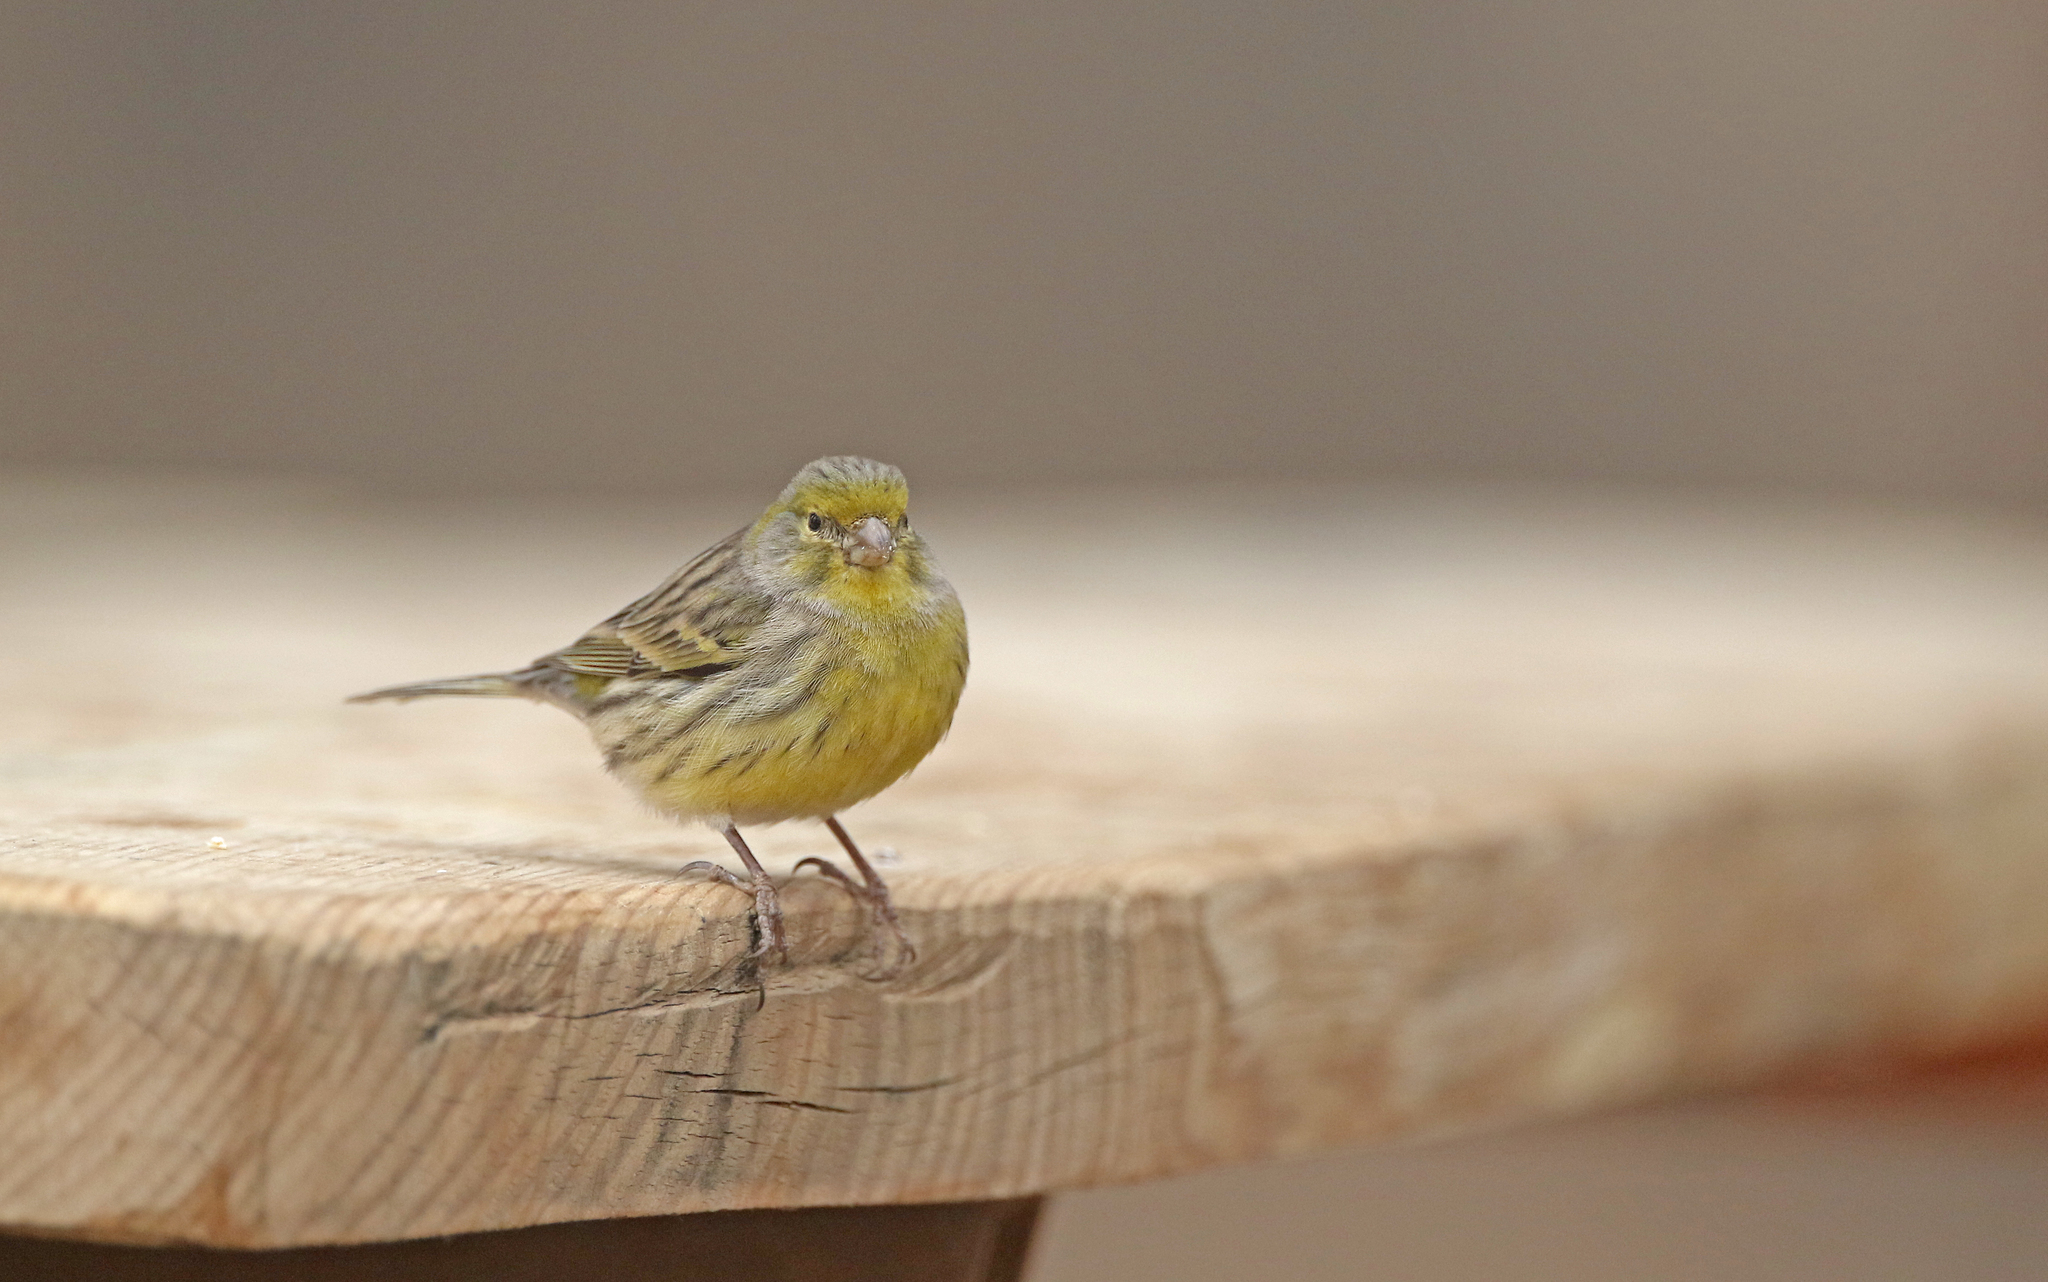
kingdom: Animalia
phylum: Chordata
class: Aves
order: Passeriformes
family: Fringillidae
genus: Serinus
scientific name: Serinus canaria
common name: Atlantic canary
